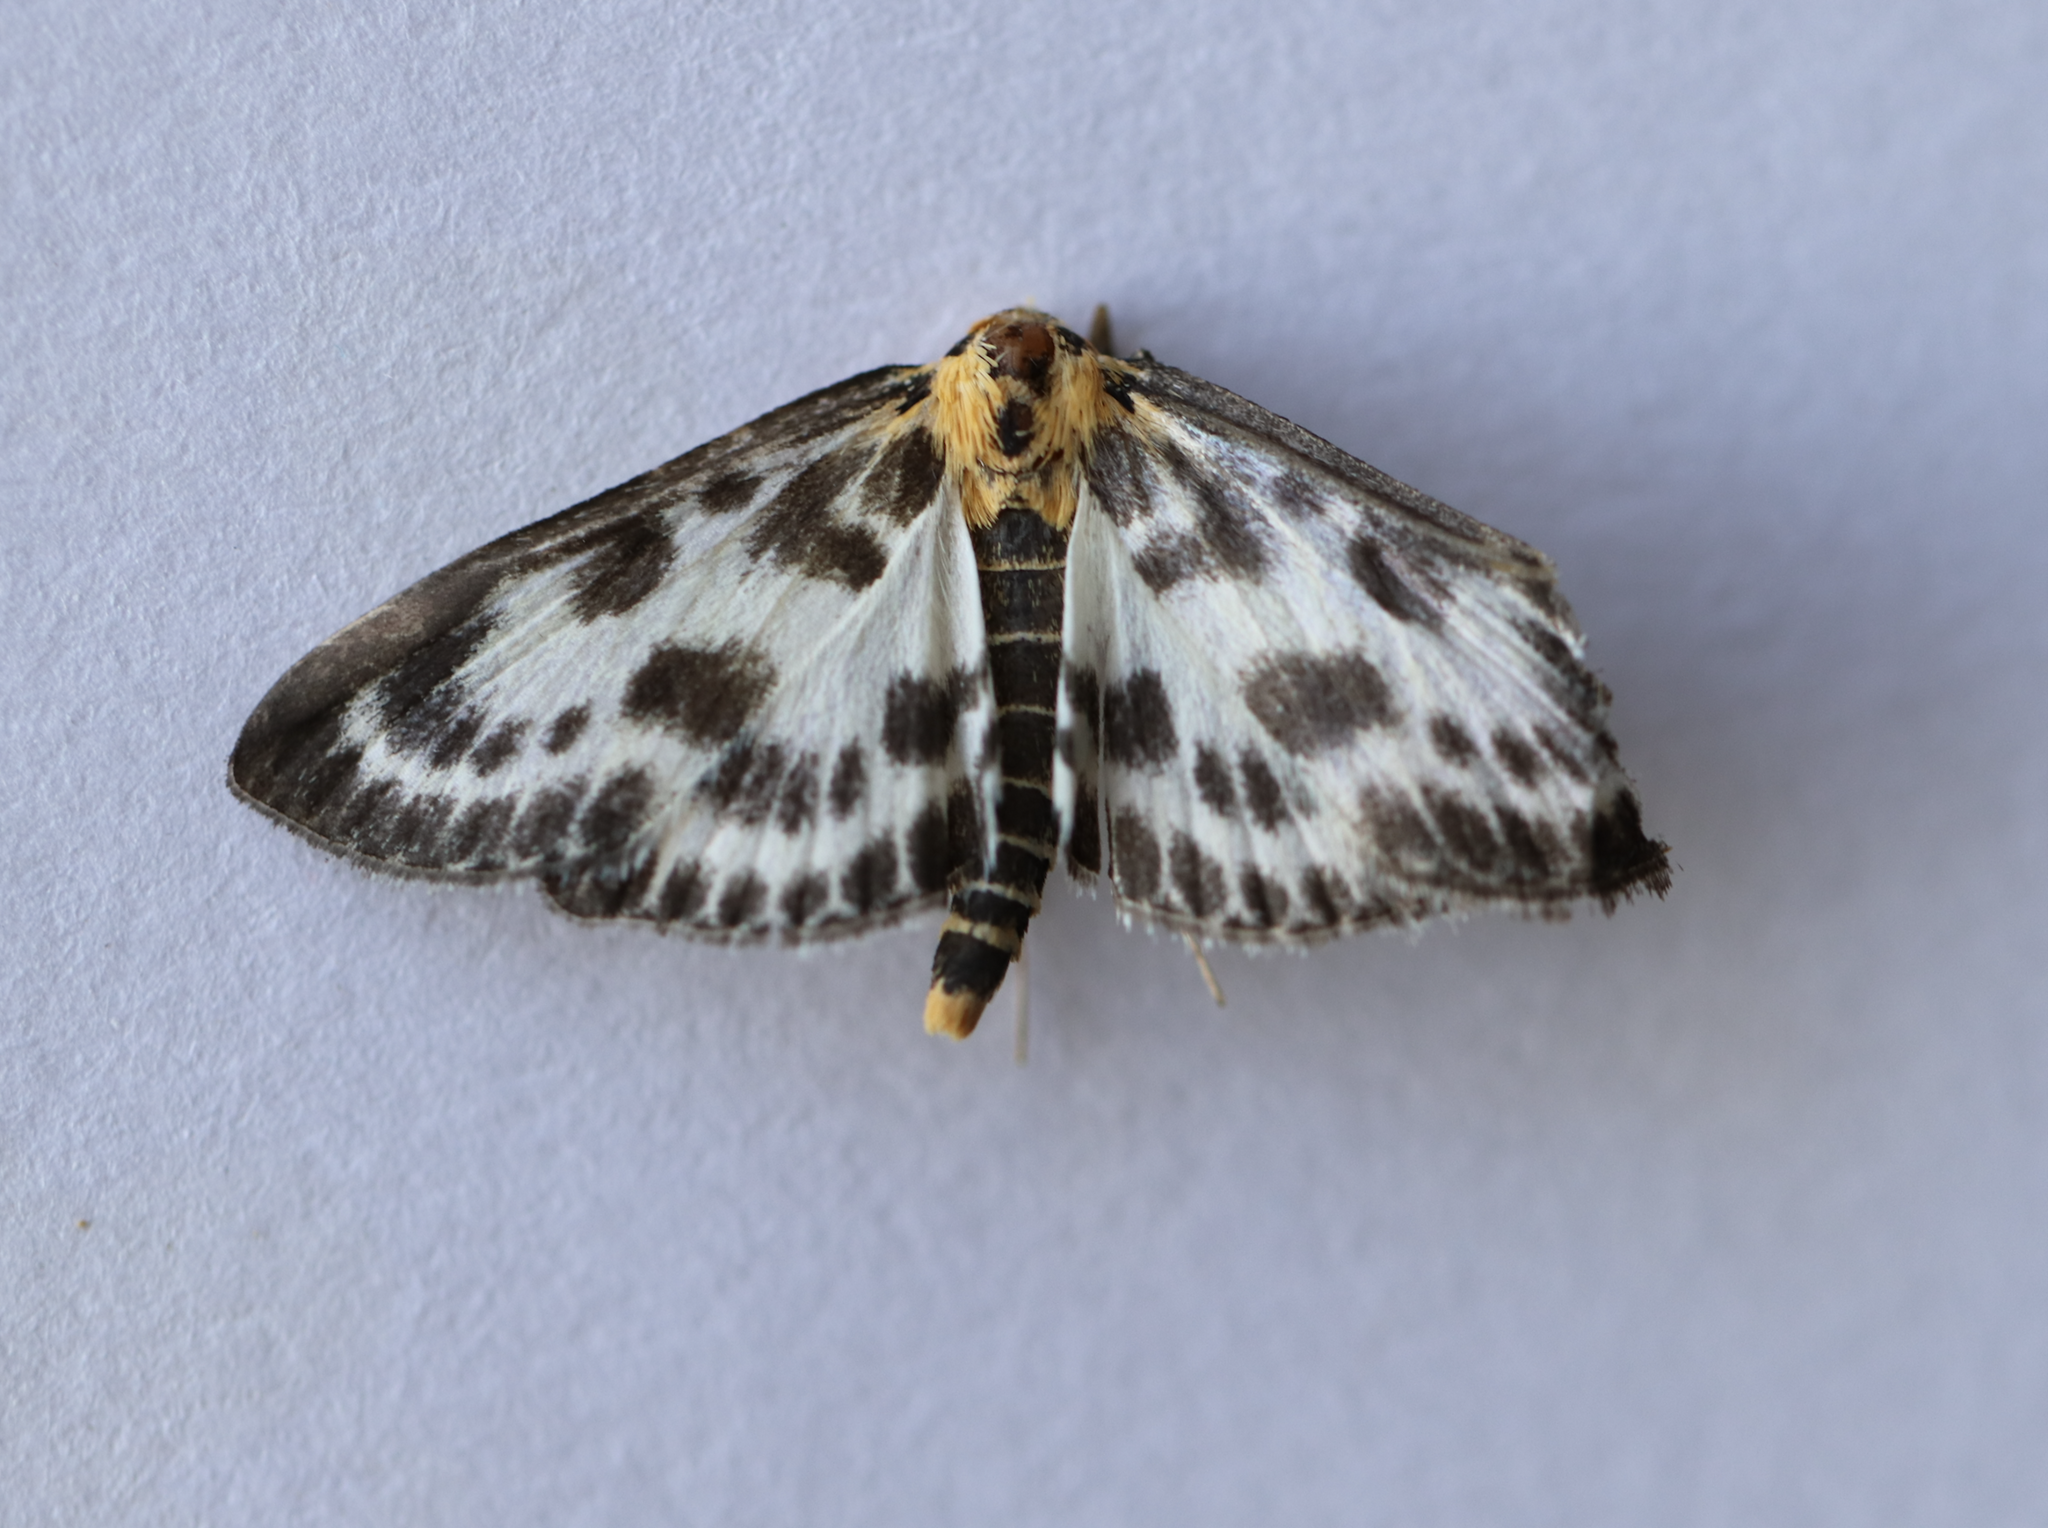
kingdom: Animalia
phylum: Arthropoda
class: Insecta
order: Lepidoptera
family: Crambidae
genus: Anania
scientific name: Anania hortulata
